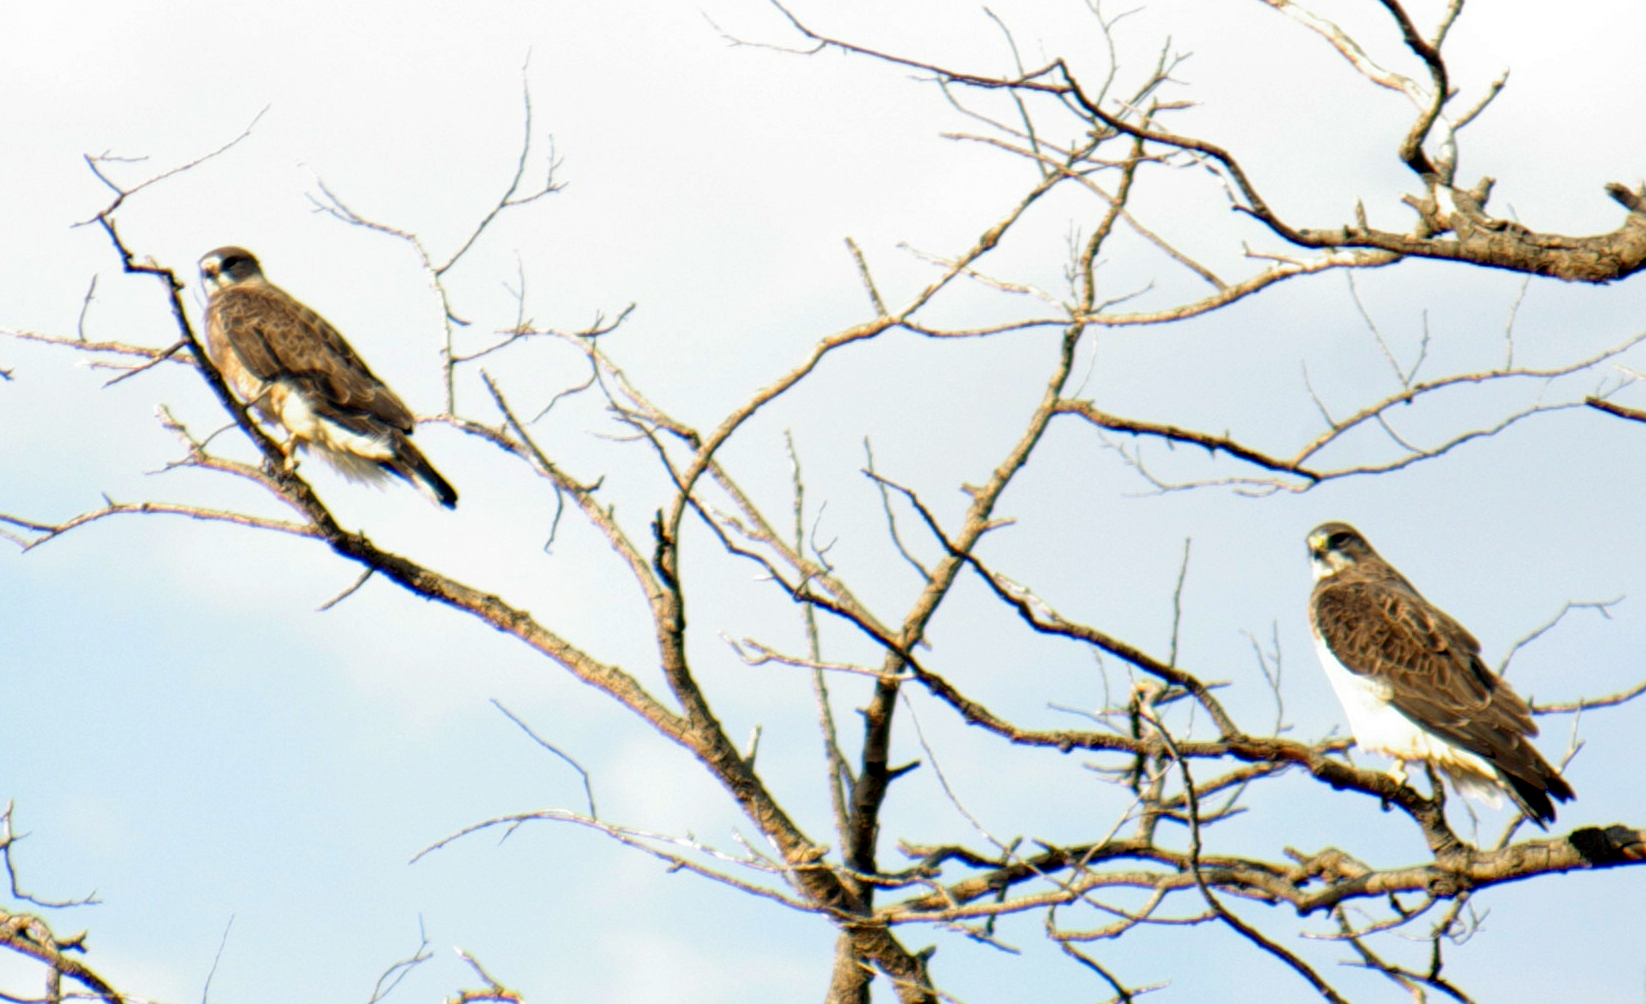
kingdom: Animalia
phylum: Chordata
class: Aves
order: Accipitriformes
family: Accipitridae
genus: Buteo
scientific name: Buteo swainsoni
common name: Swainson's hawk
